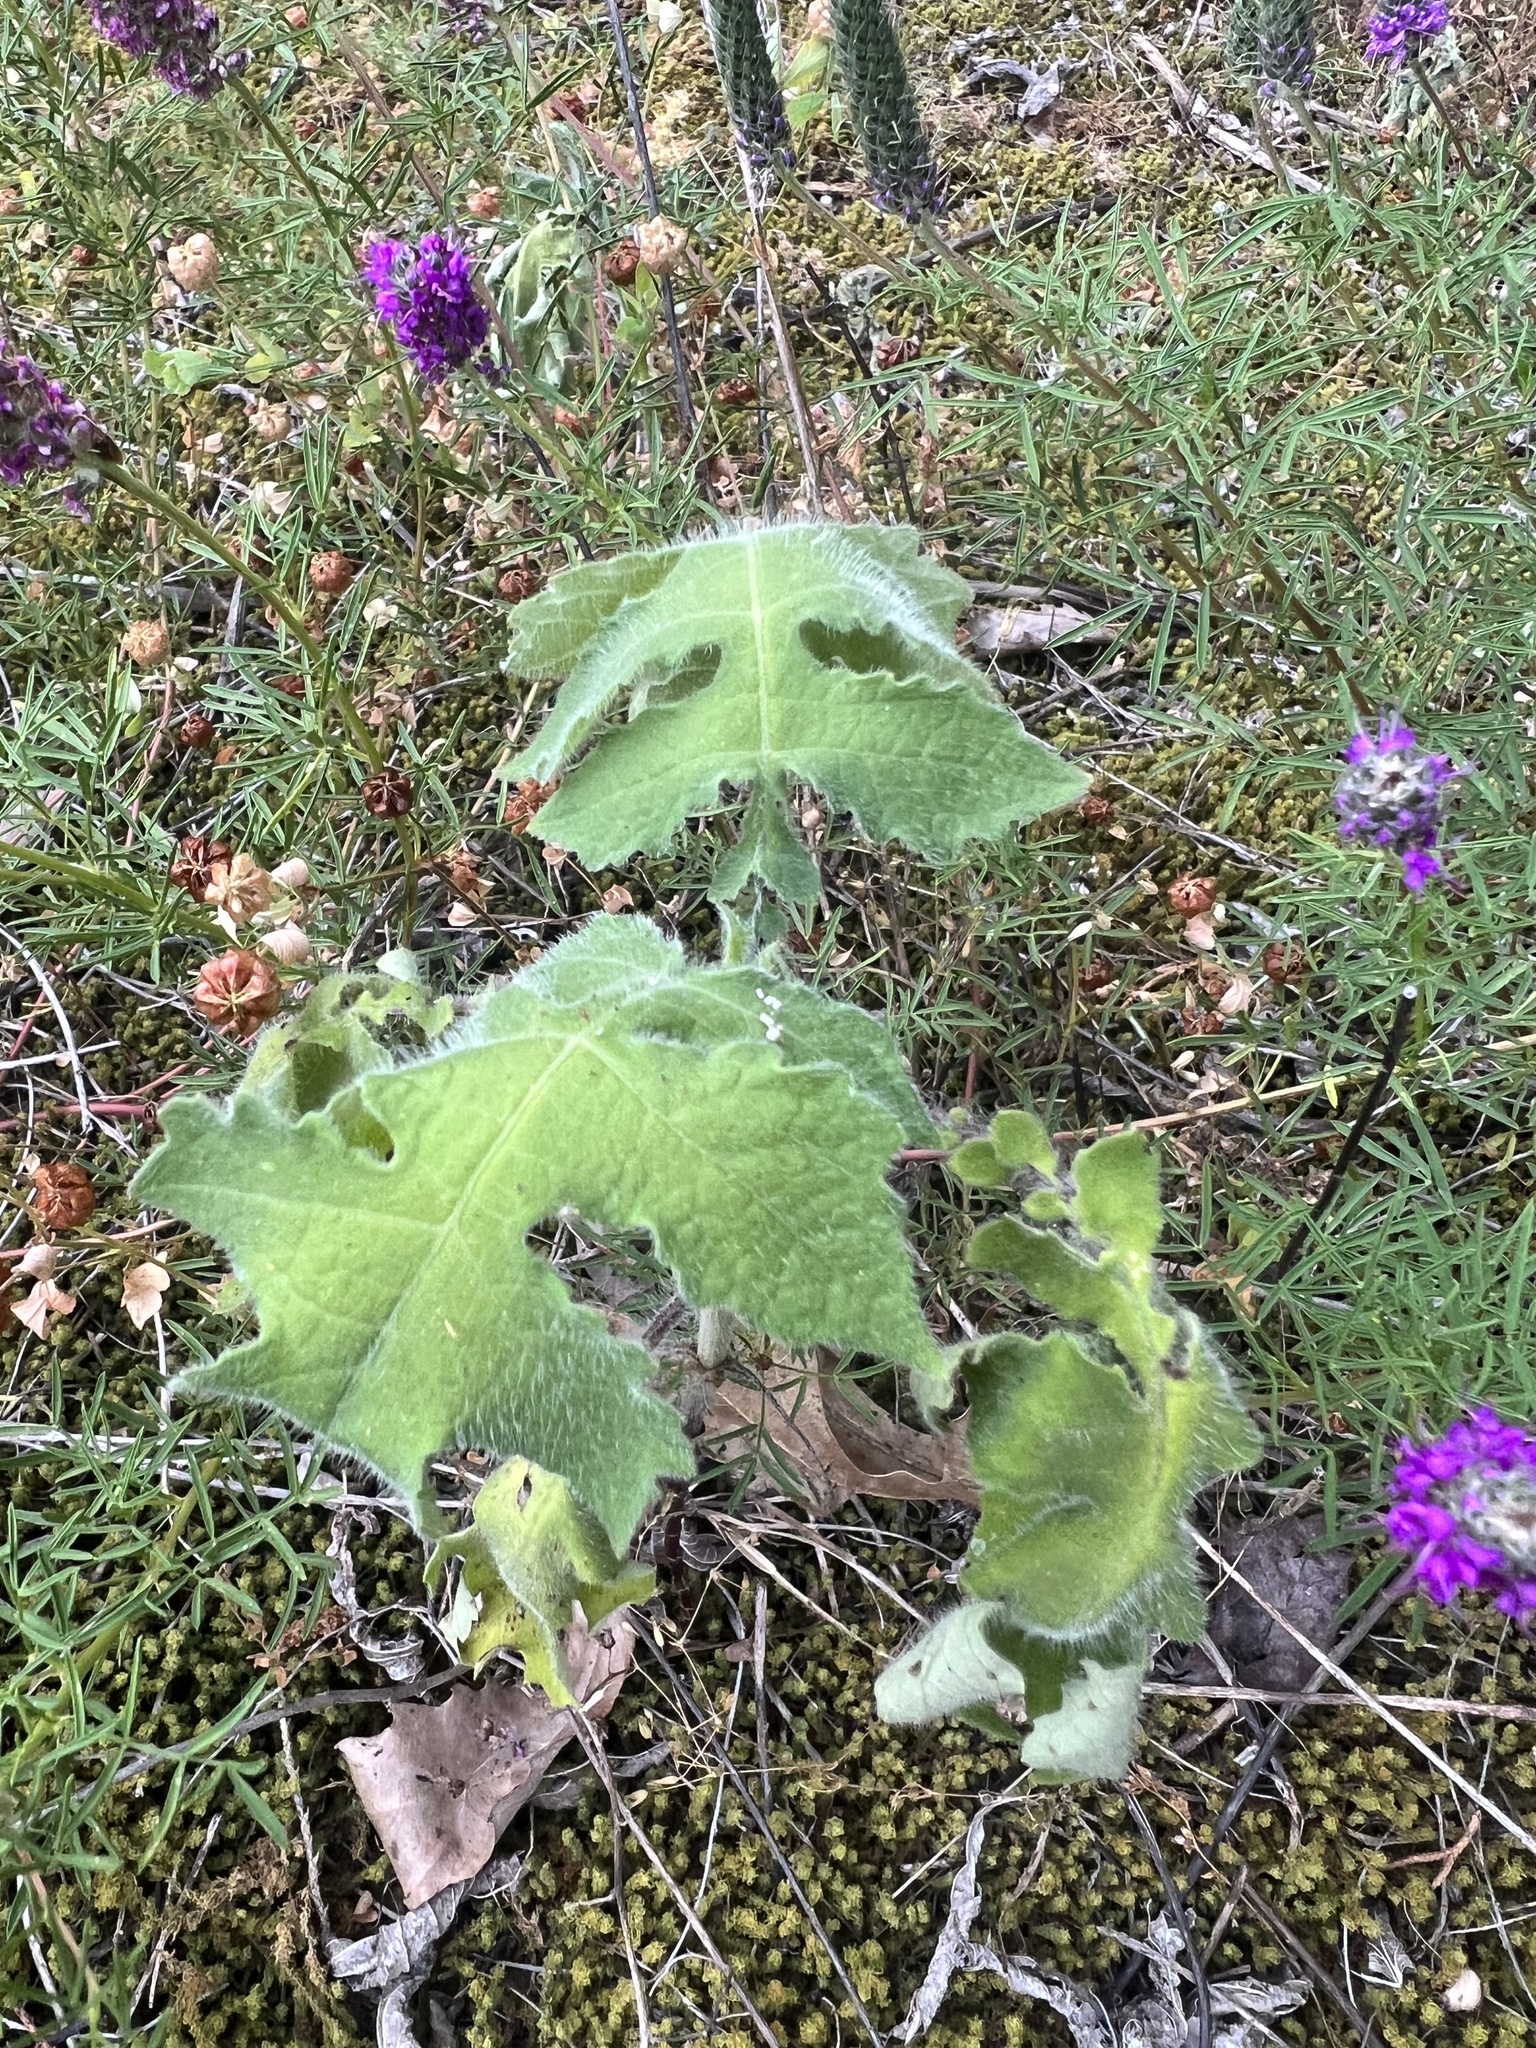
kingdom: Plantae
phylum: Tracheophyta
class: Magnoliopsida
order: Asterales
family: Asteraceae
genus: Polymnia
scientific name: Polymnia canadensis
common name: Pale-flowered leafcup
